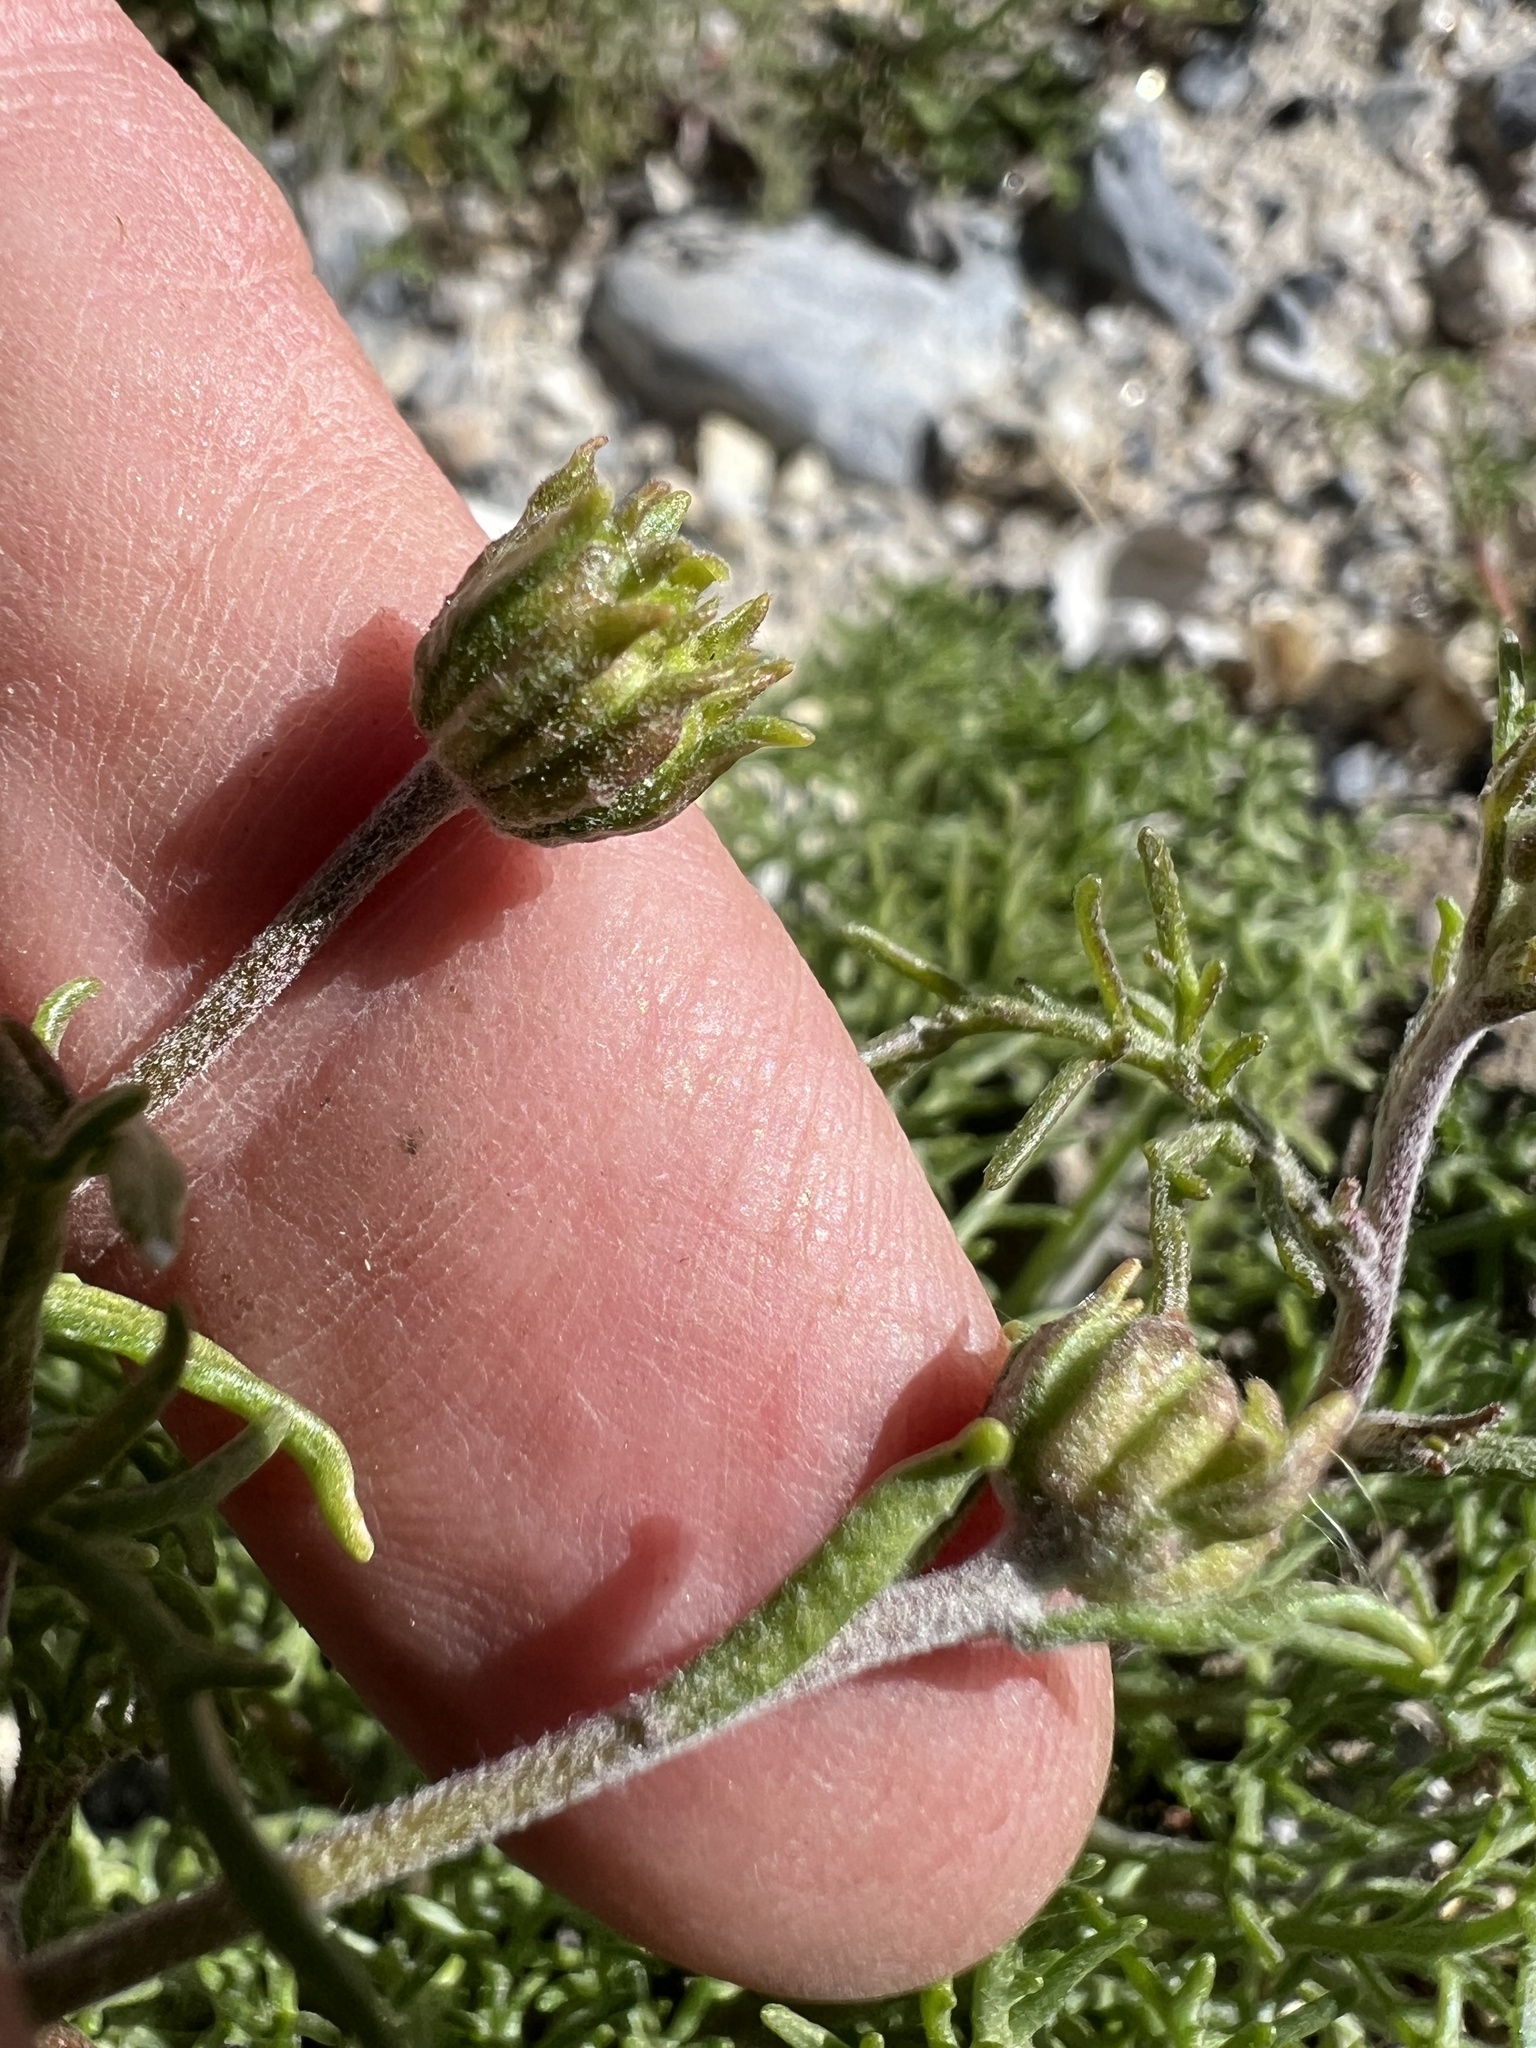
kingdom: Plantae
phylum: Tracheophyta
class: Magnoliopsida
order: Asterales
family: Asteraceae
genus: Chaenactis
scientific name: Chaenactis stevioides
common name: Desert pincushion
